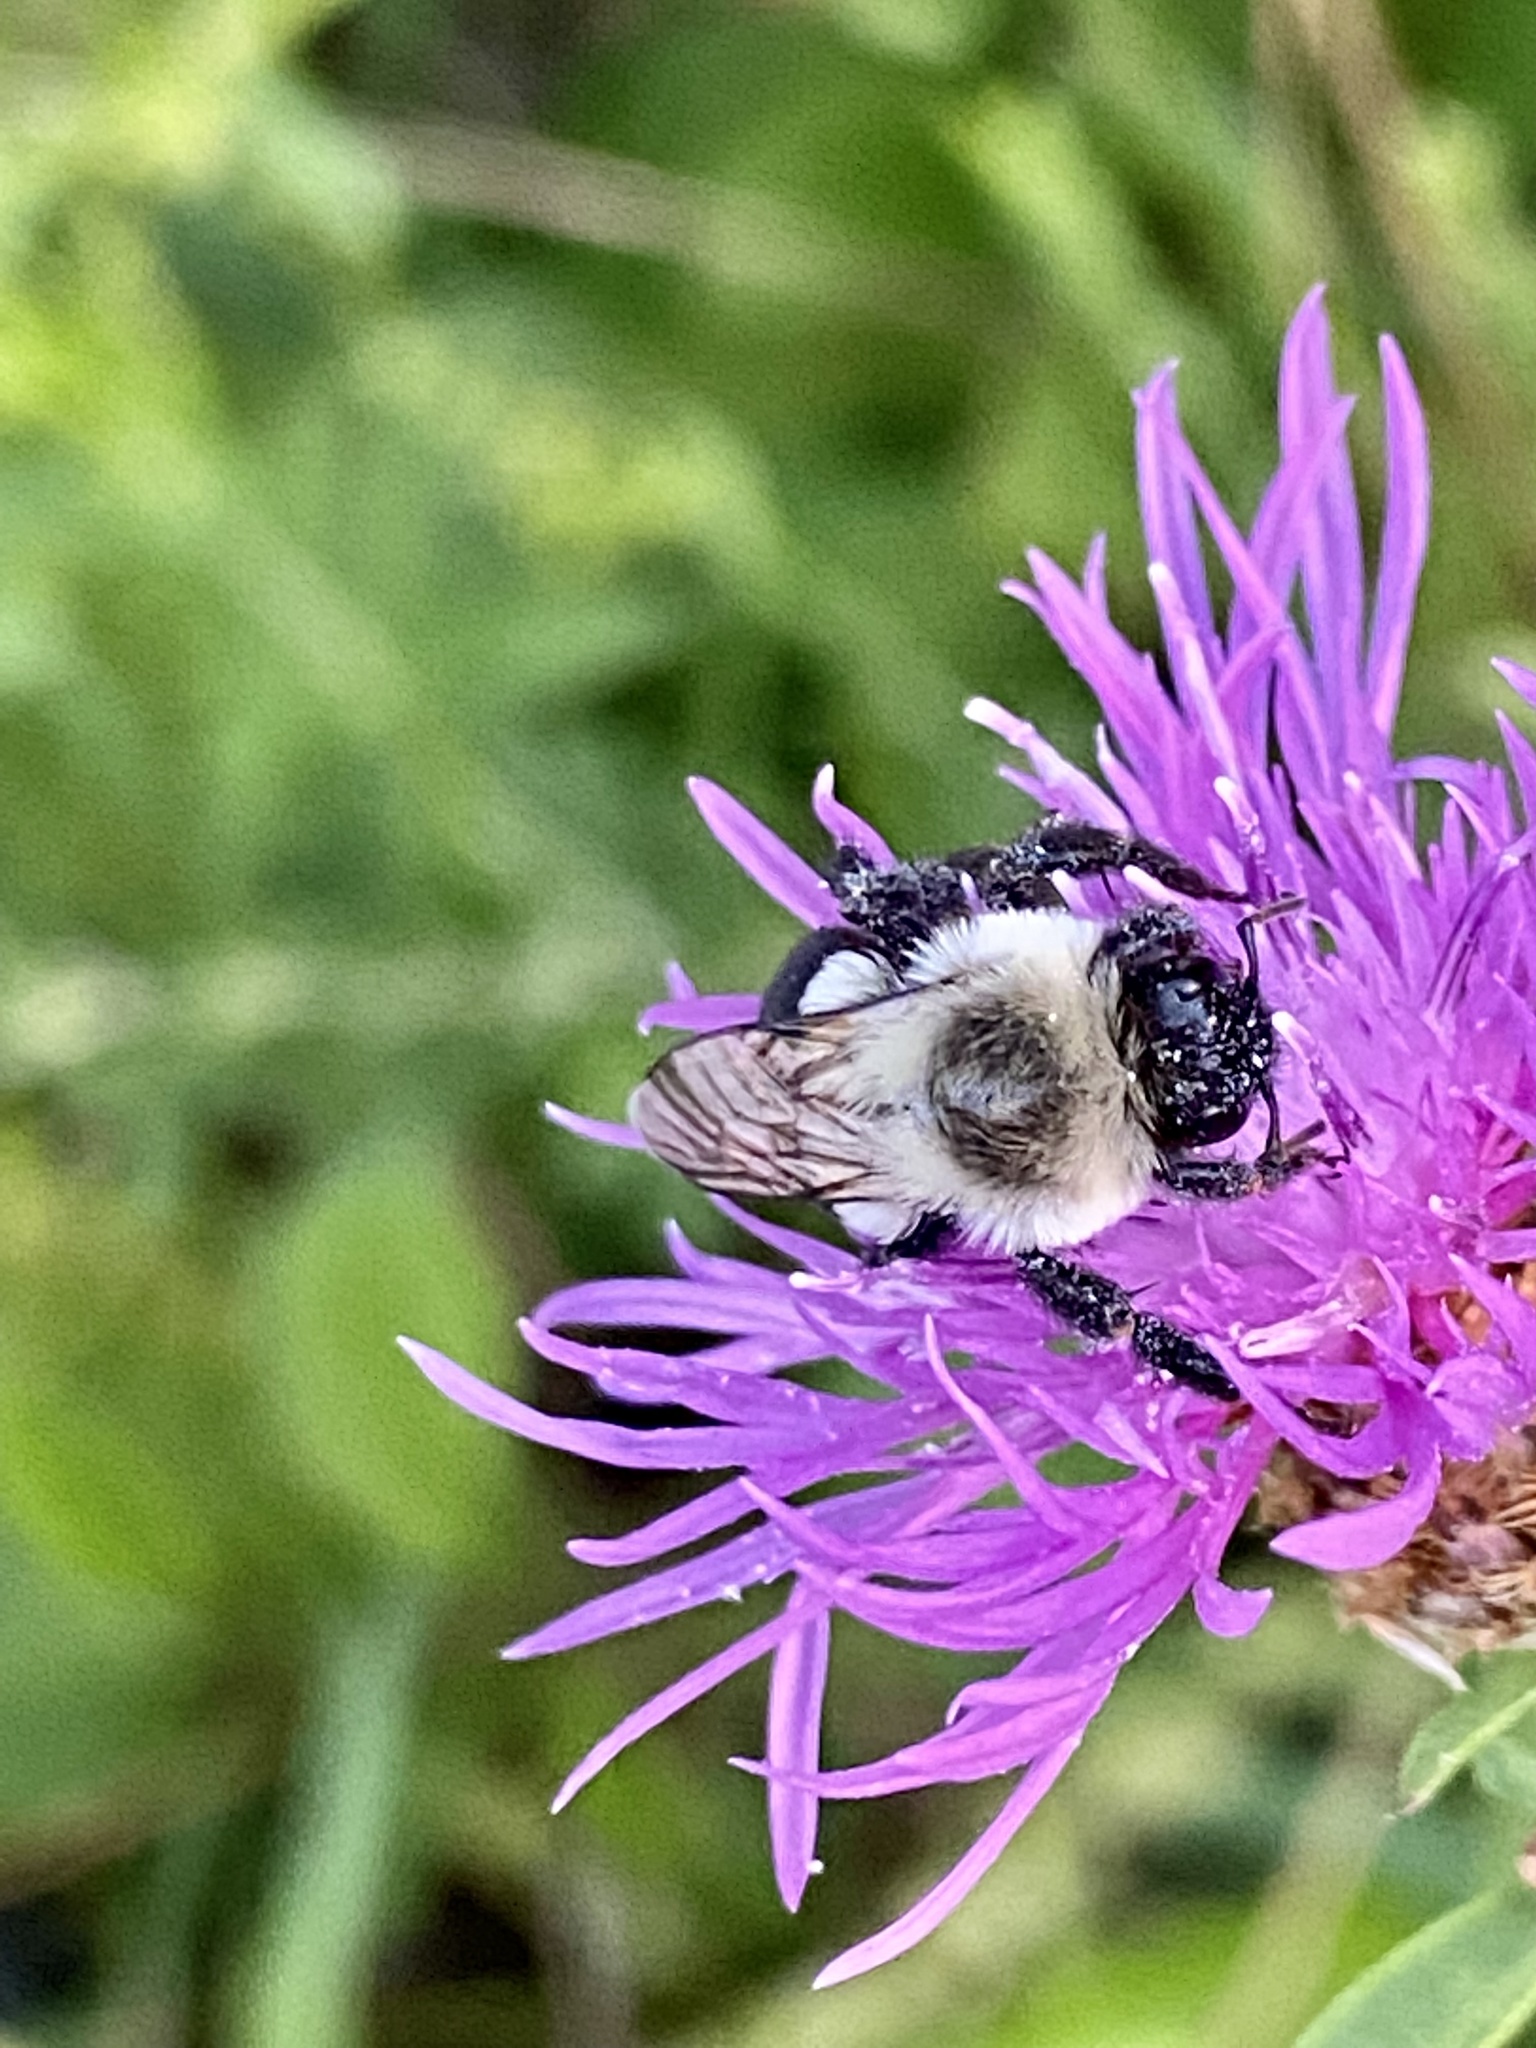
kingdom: Animalia
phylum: Arthropoda
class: Insecta
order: Hymenoptera
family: Apidae
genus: Bombus
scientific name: Bombus impatiens
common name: Common eastern bumble bee
